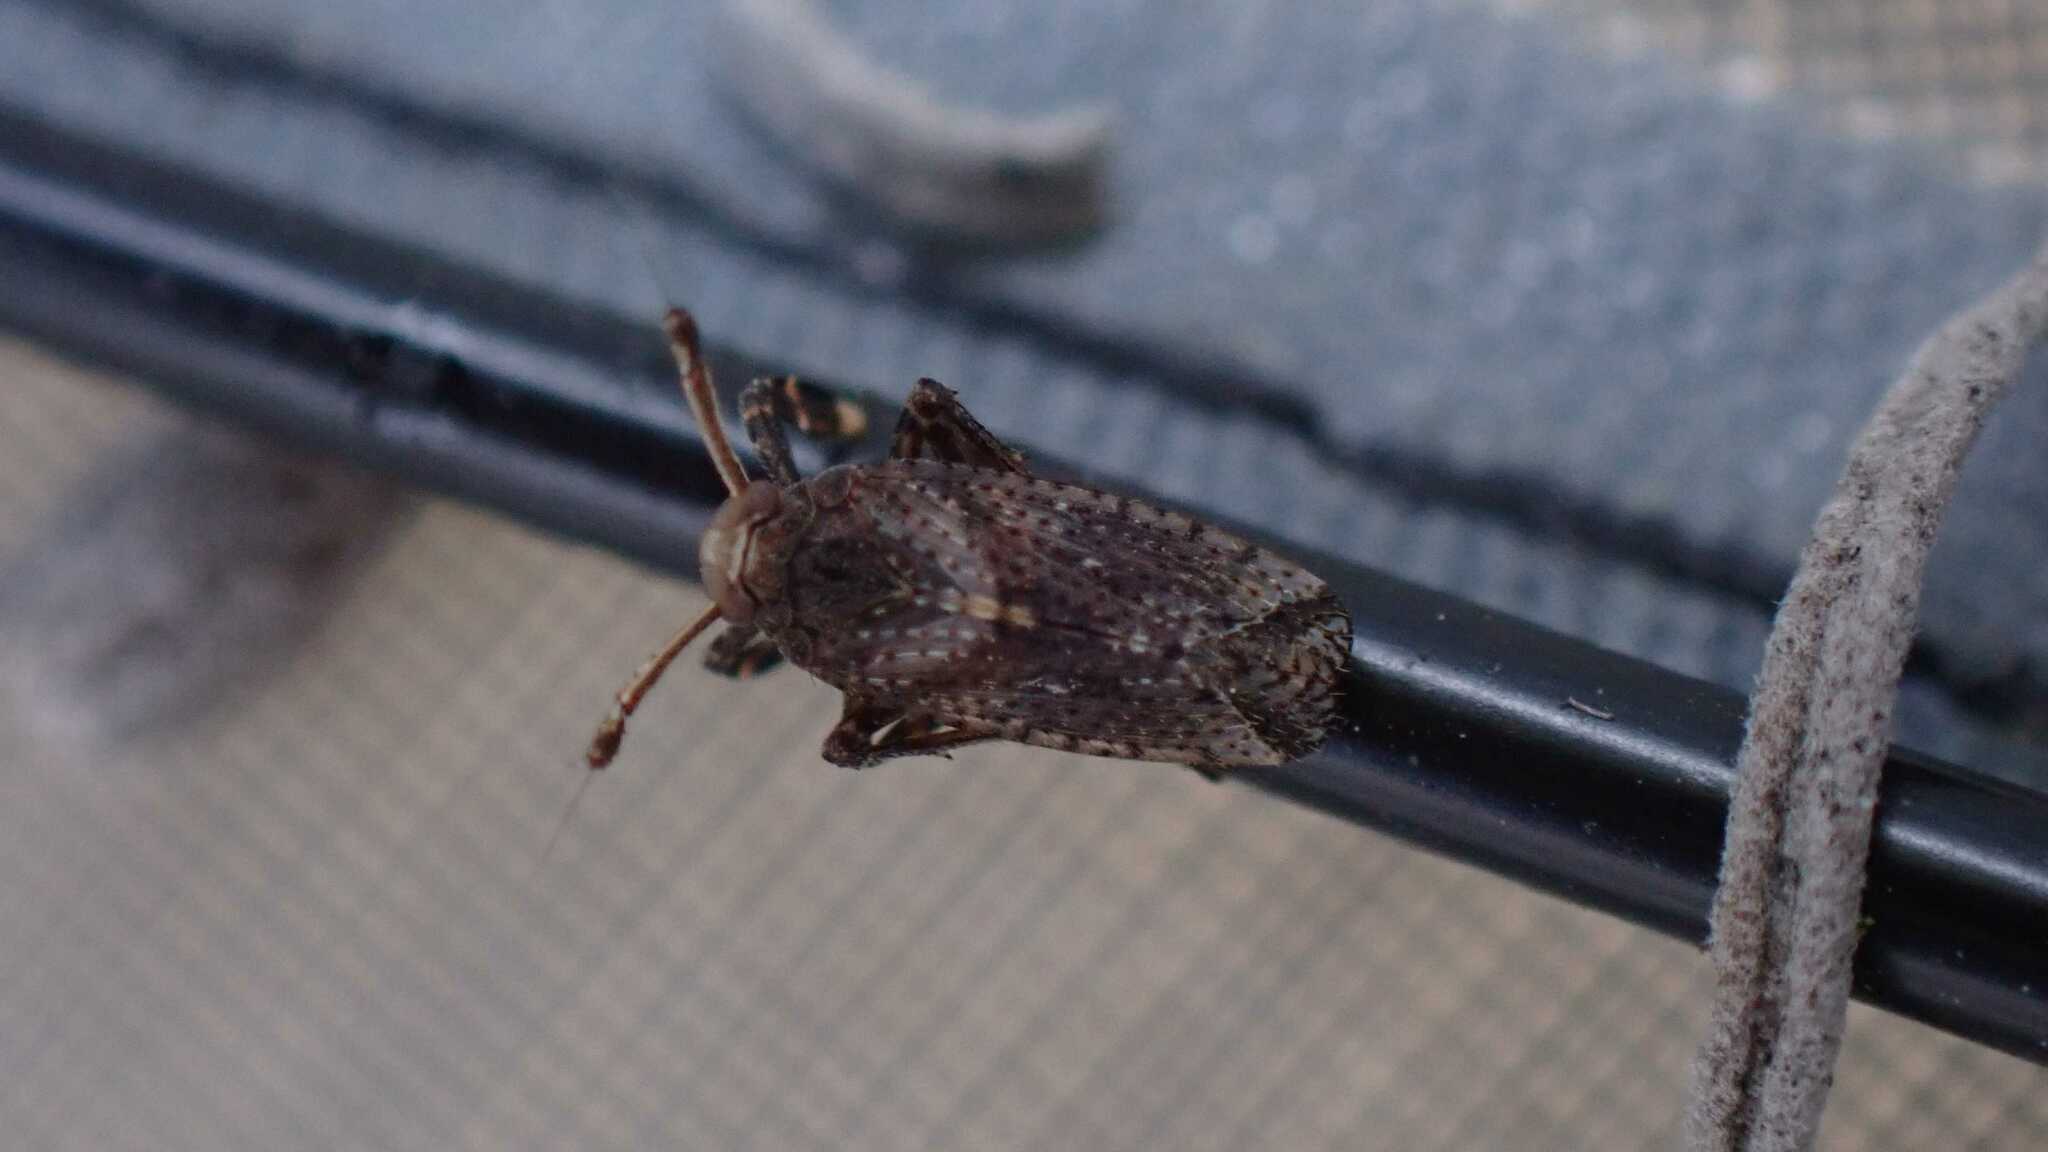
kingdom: Animalia
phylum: Arthropoda
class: Insecta
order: Hemiptera
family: Delphacidae
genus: Asiraca
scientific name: Asiraca clavicornis
